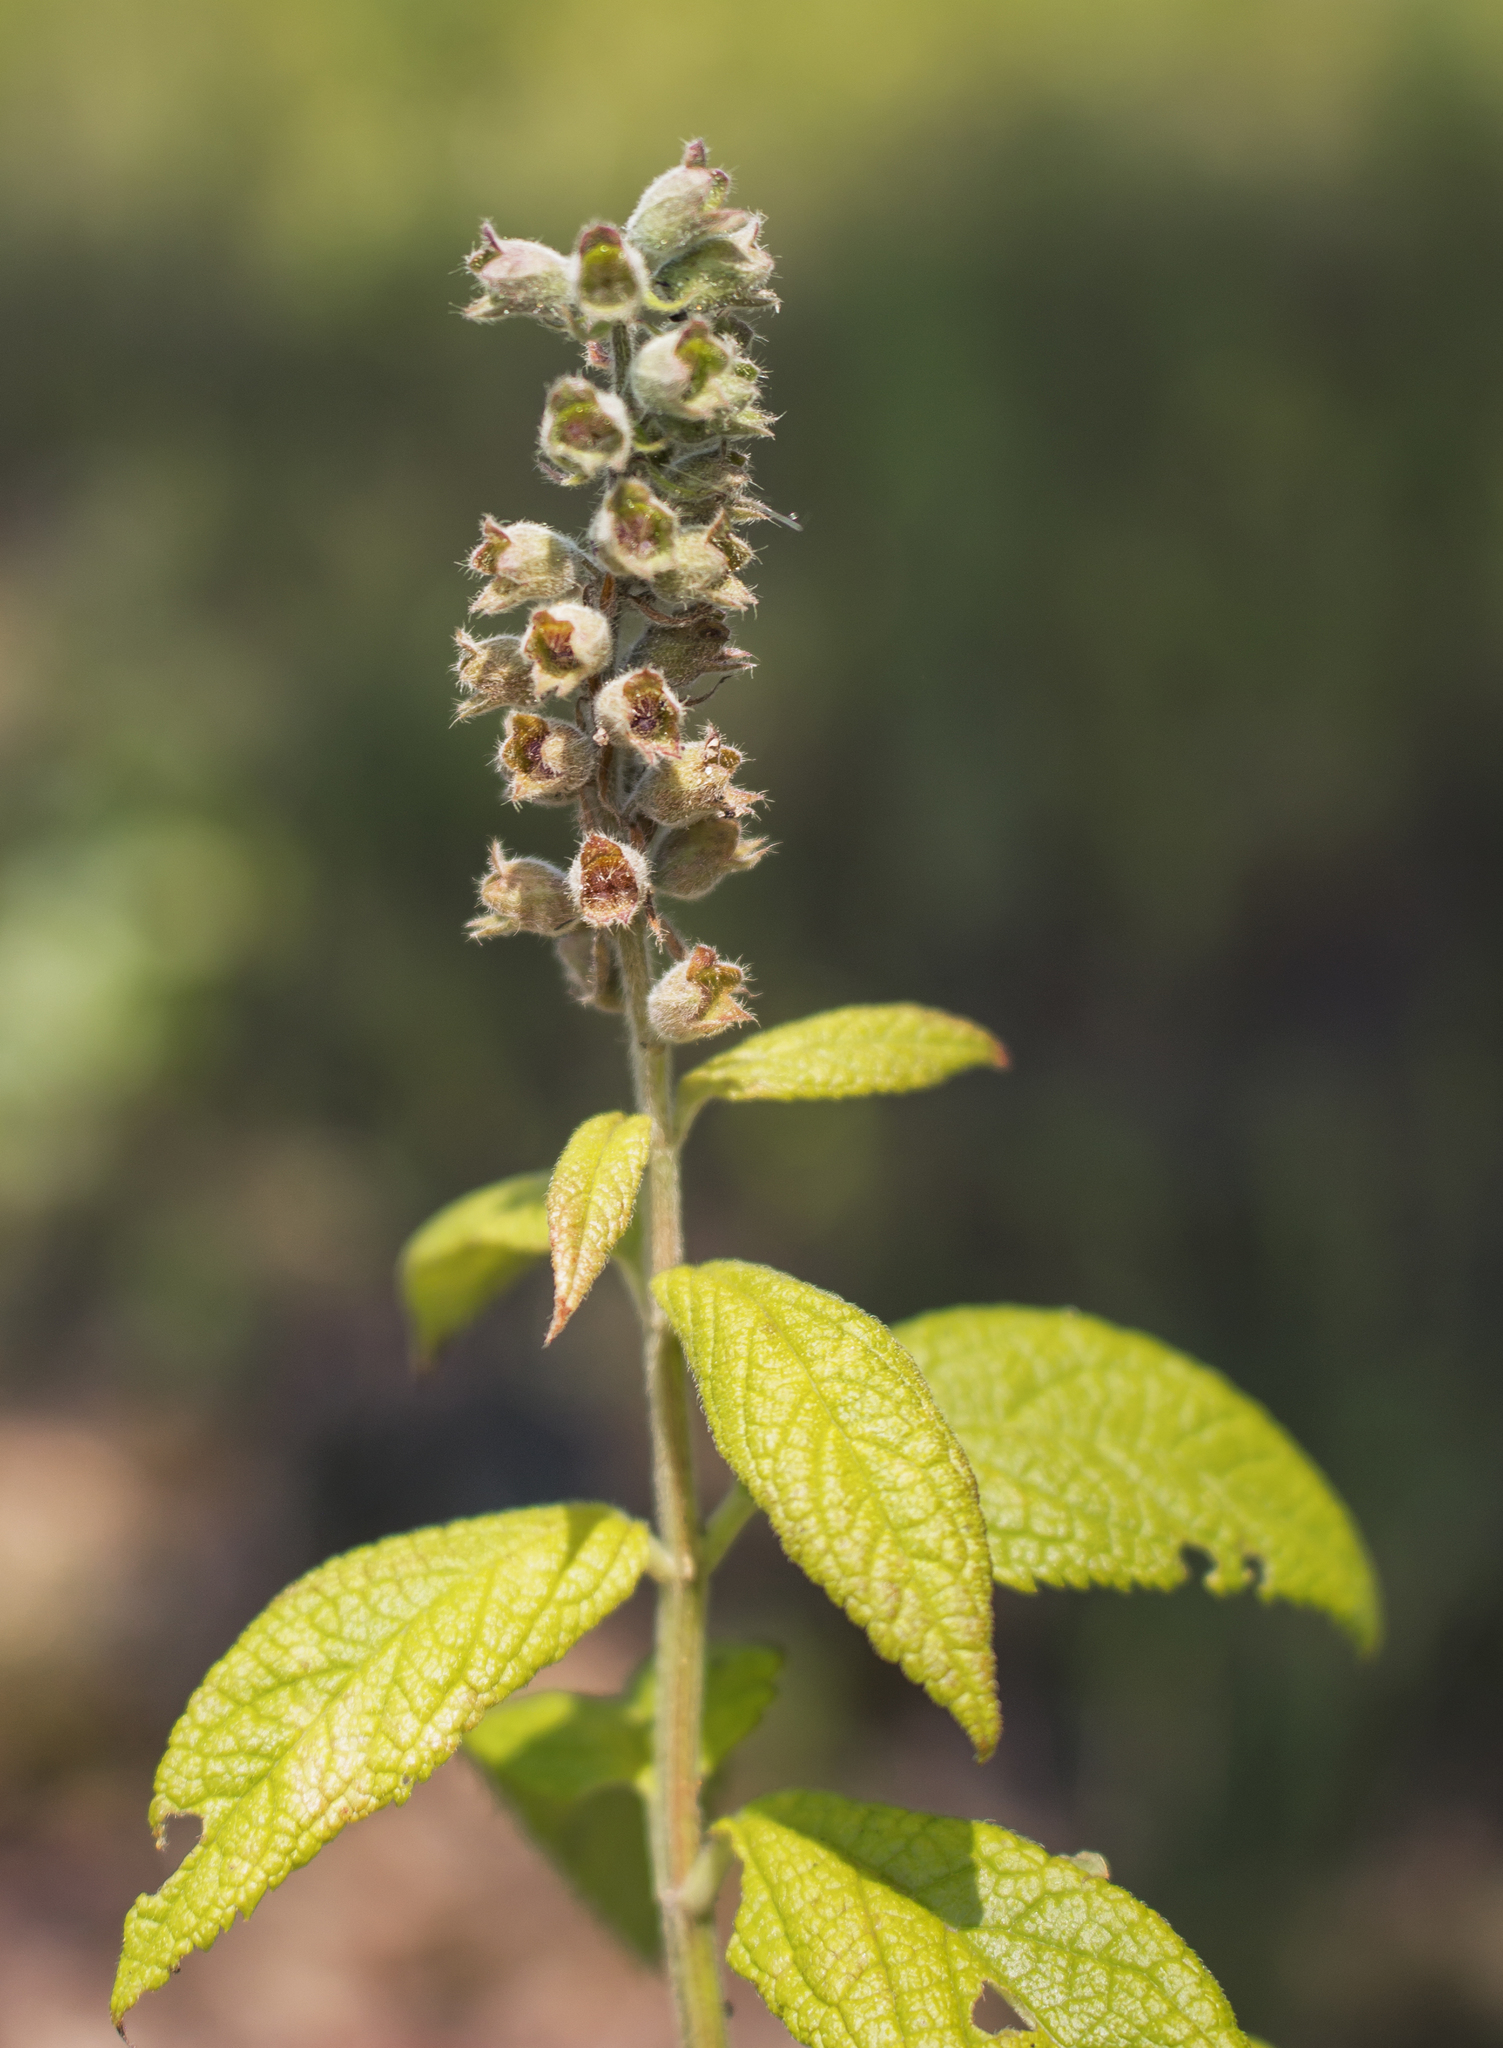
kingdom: Plantae
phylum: Tracheophyta
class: Magnoliopsida
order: Lamiales
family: Lamiaceae
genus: Teucrium
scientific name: Teucrium canadense
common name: American germander
